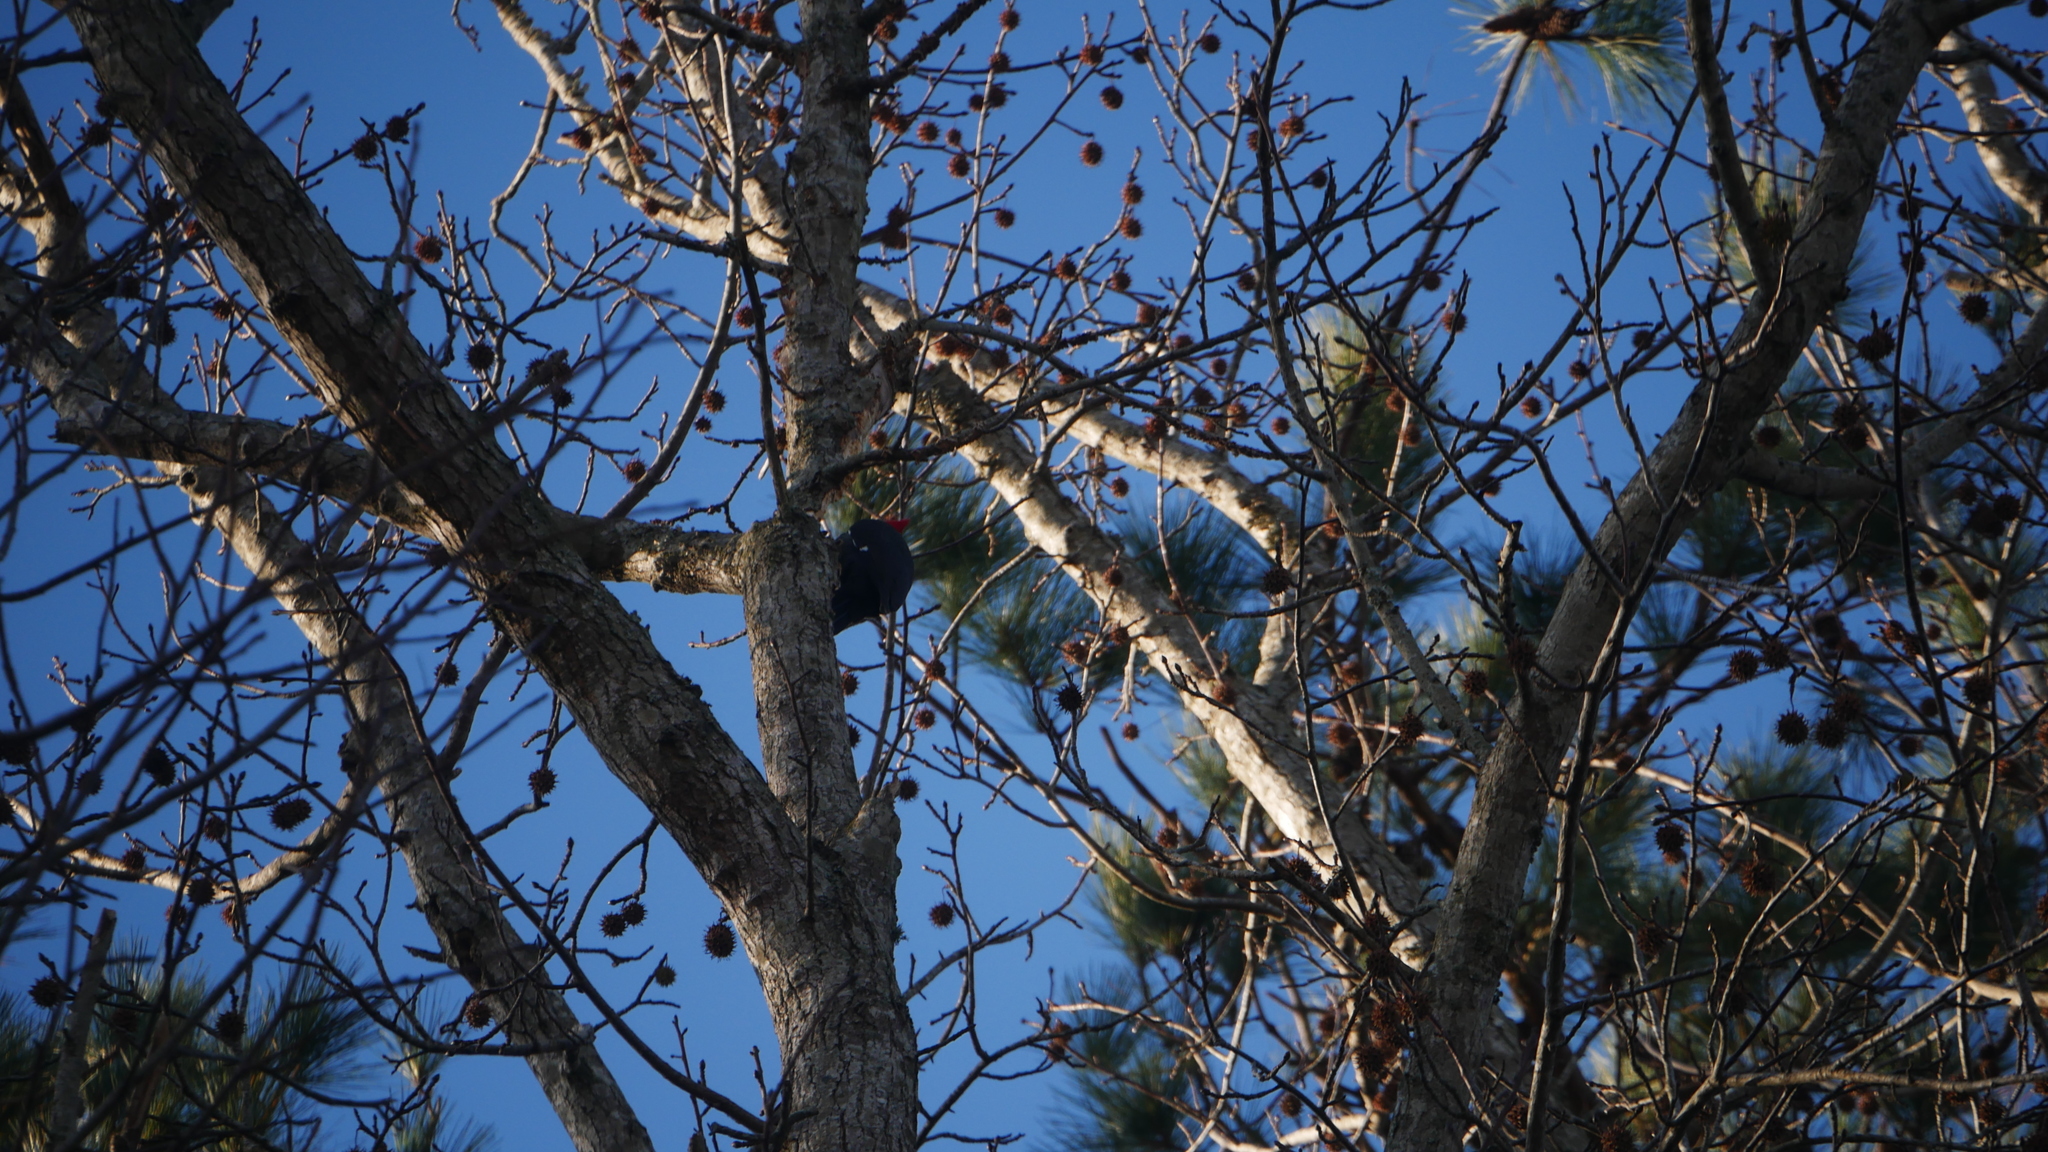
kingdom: Animalia
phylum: Chordata
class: Aves
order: Piciformes
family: Picidae
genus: Dryocopus
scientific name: Dryocopus pileatus
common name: Pileated woodpecker
